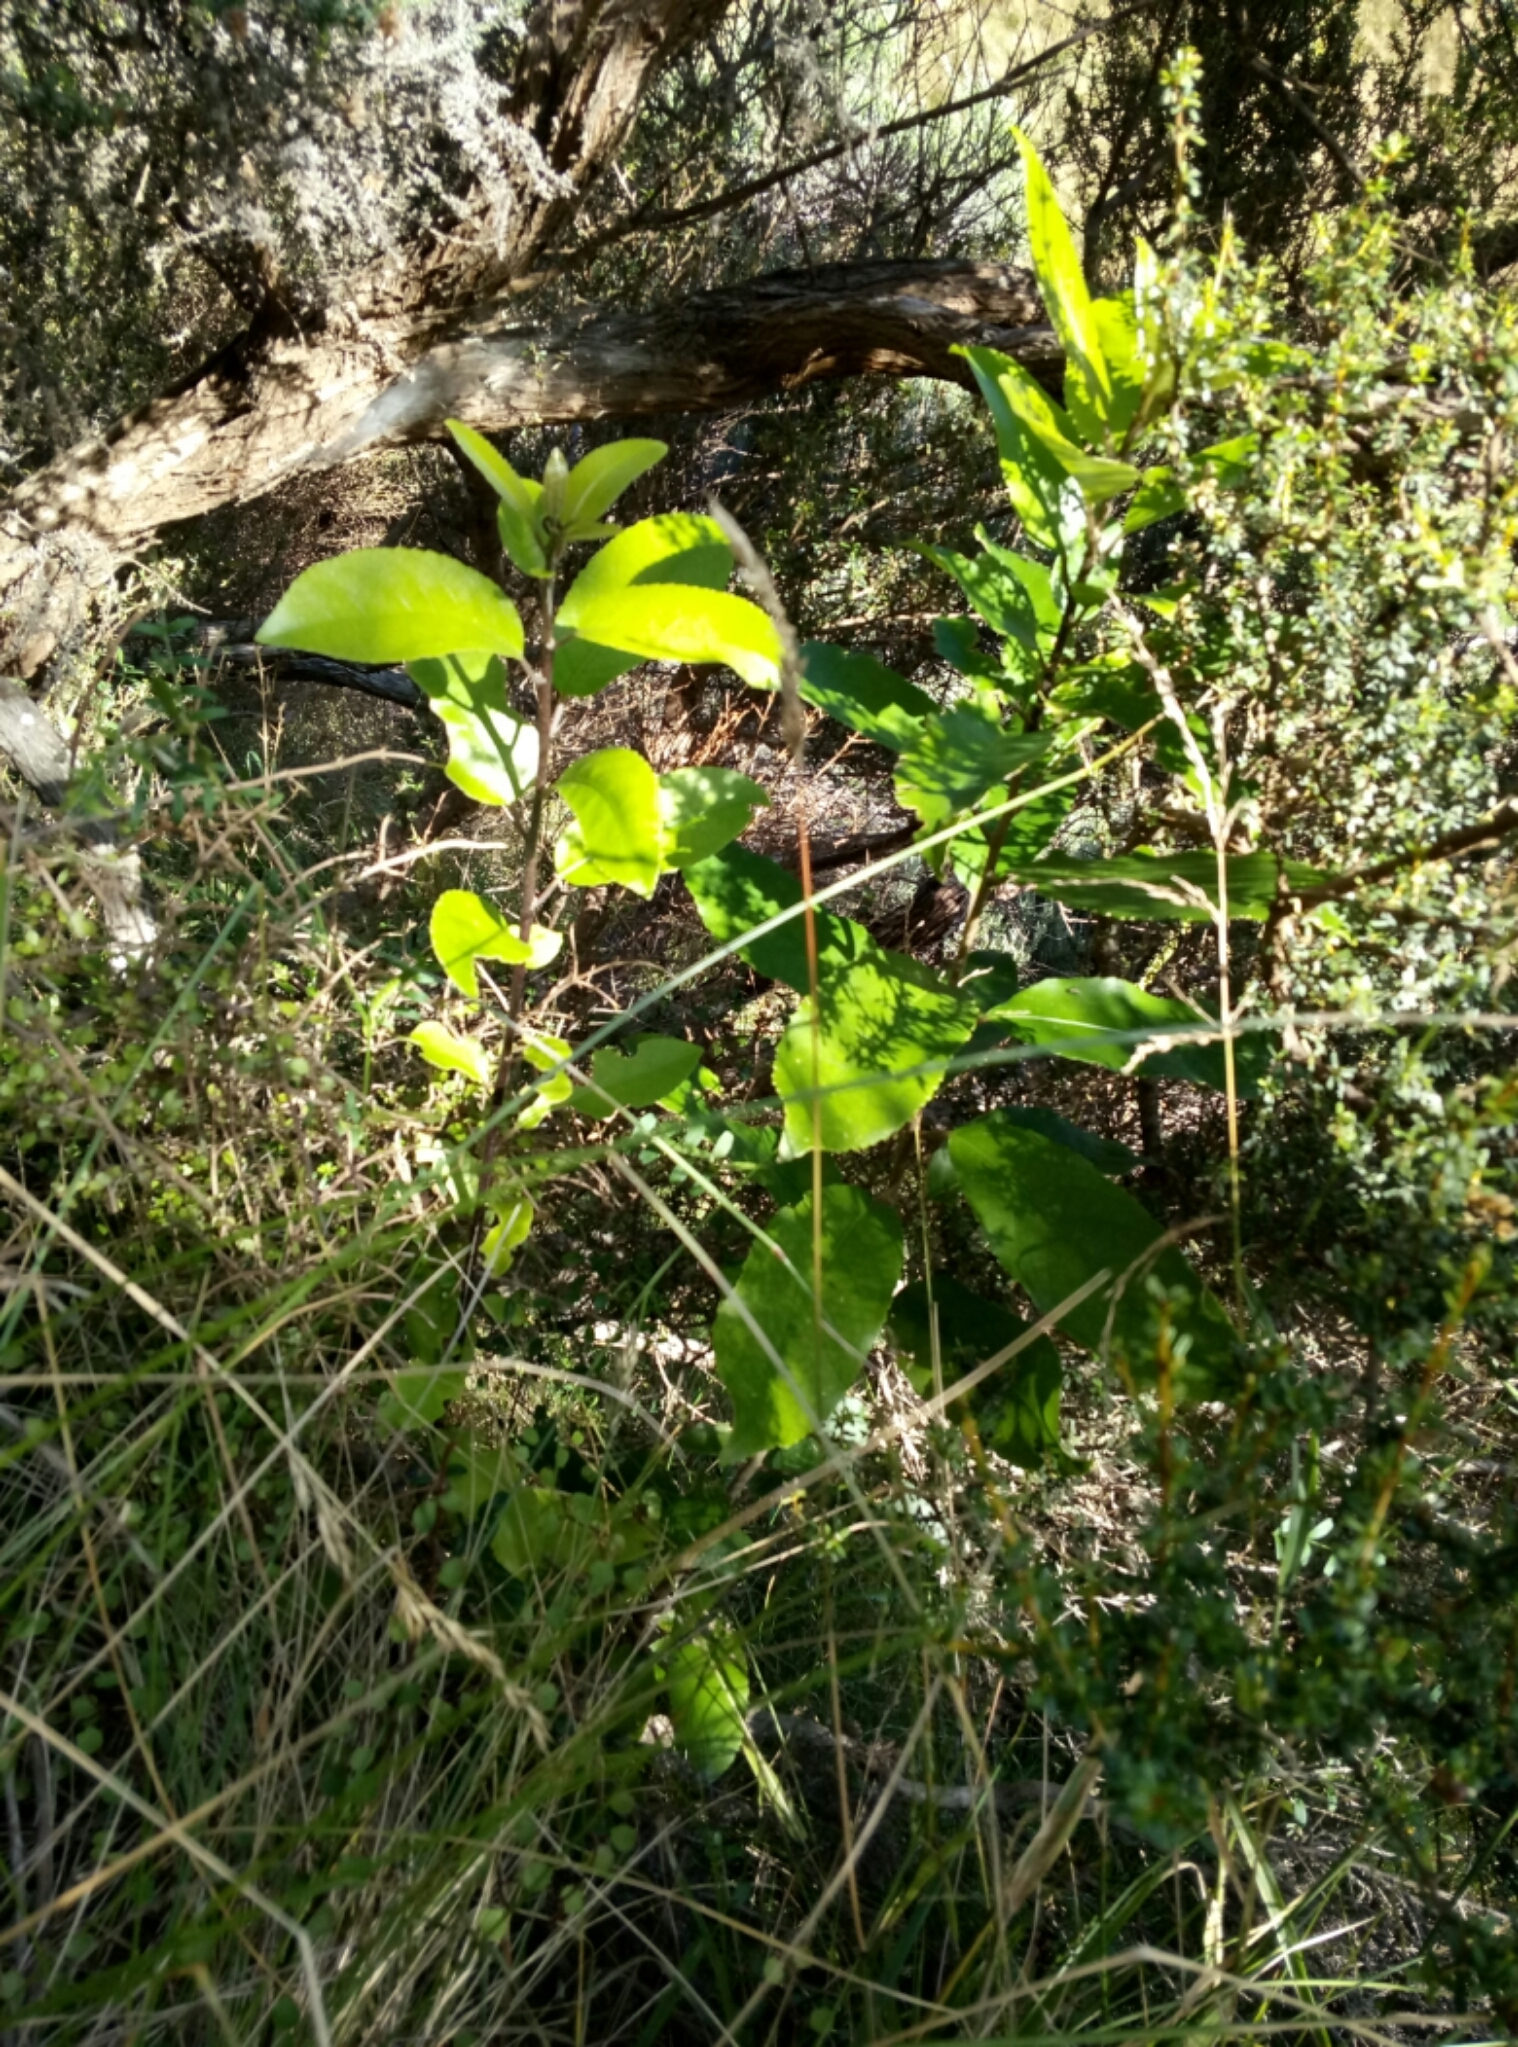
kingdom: Plantae
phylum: Tracheophyta
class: Magnoliopsida
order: Malpighiales
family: Violaceae
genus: Melicytus
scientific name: Melicytus ramiflorus
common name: Mahoe
